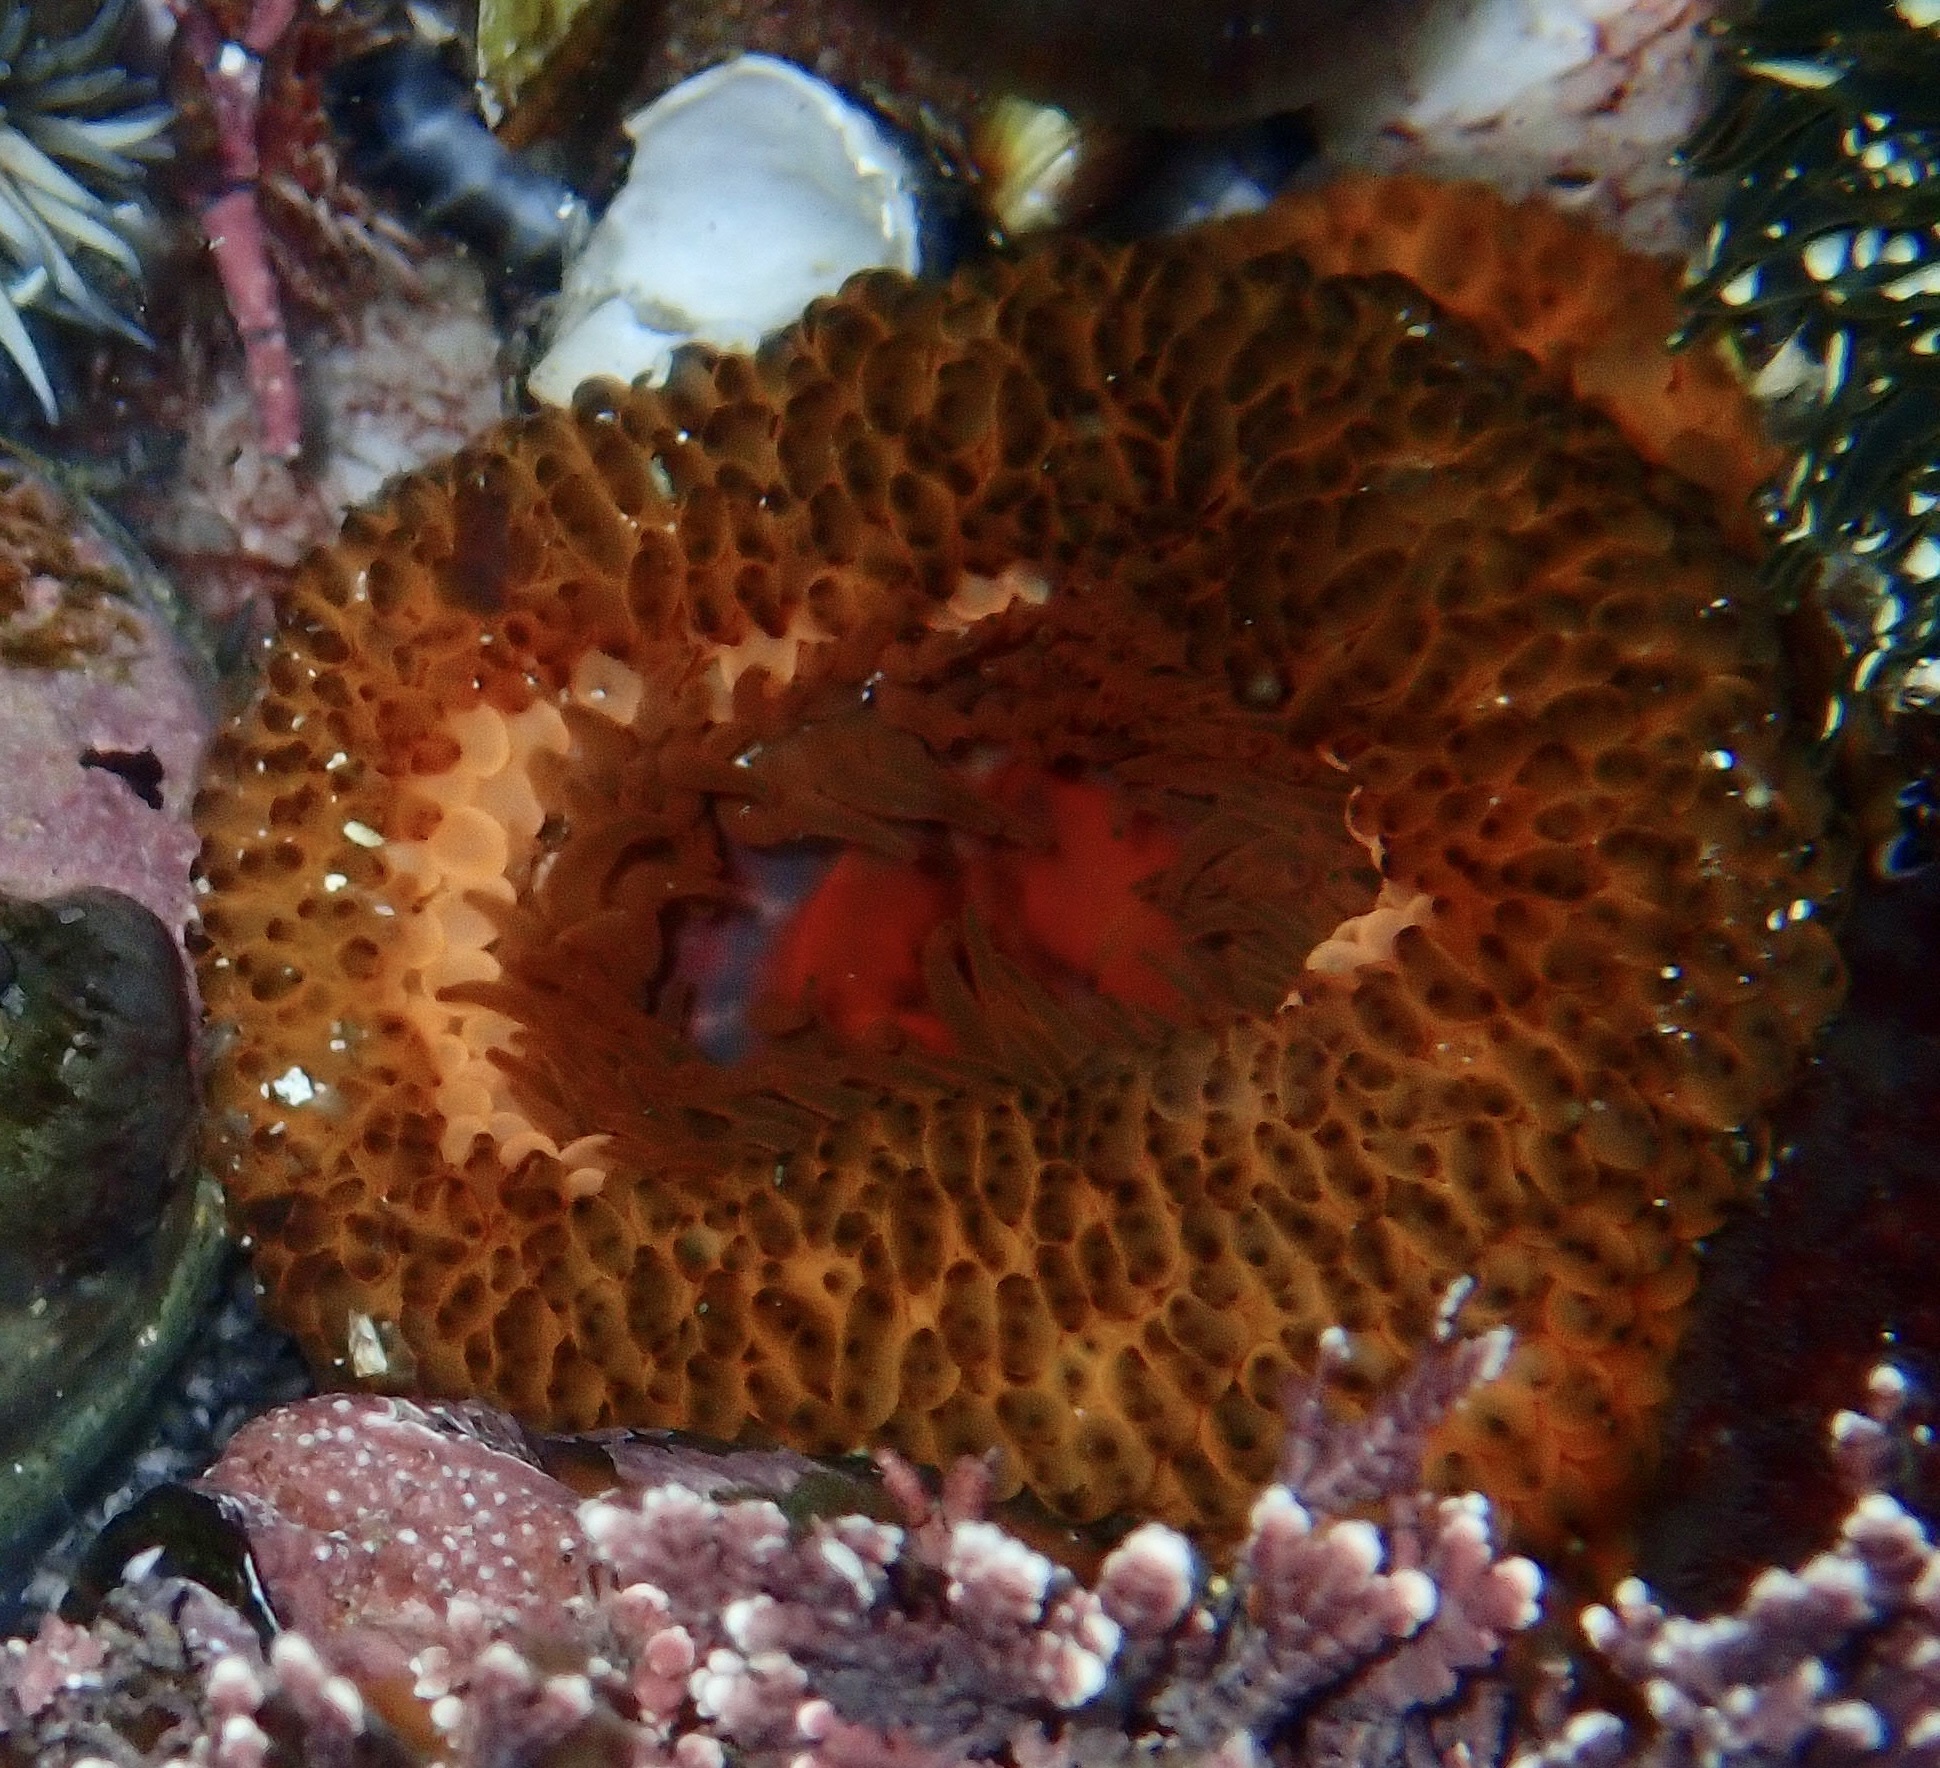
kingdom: Animalia
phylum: Cnidaria
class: Anthozoa
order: Actiniaria
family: Actiniidae
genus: Bunodosoma
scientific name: Bunodosoma capense
